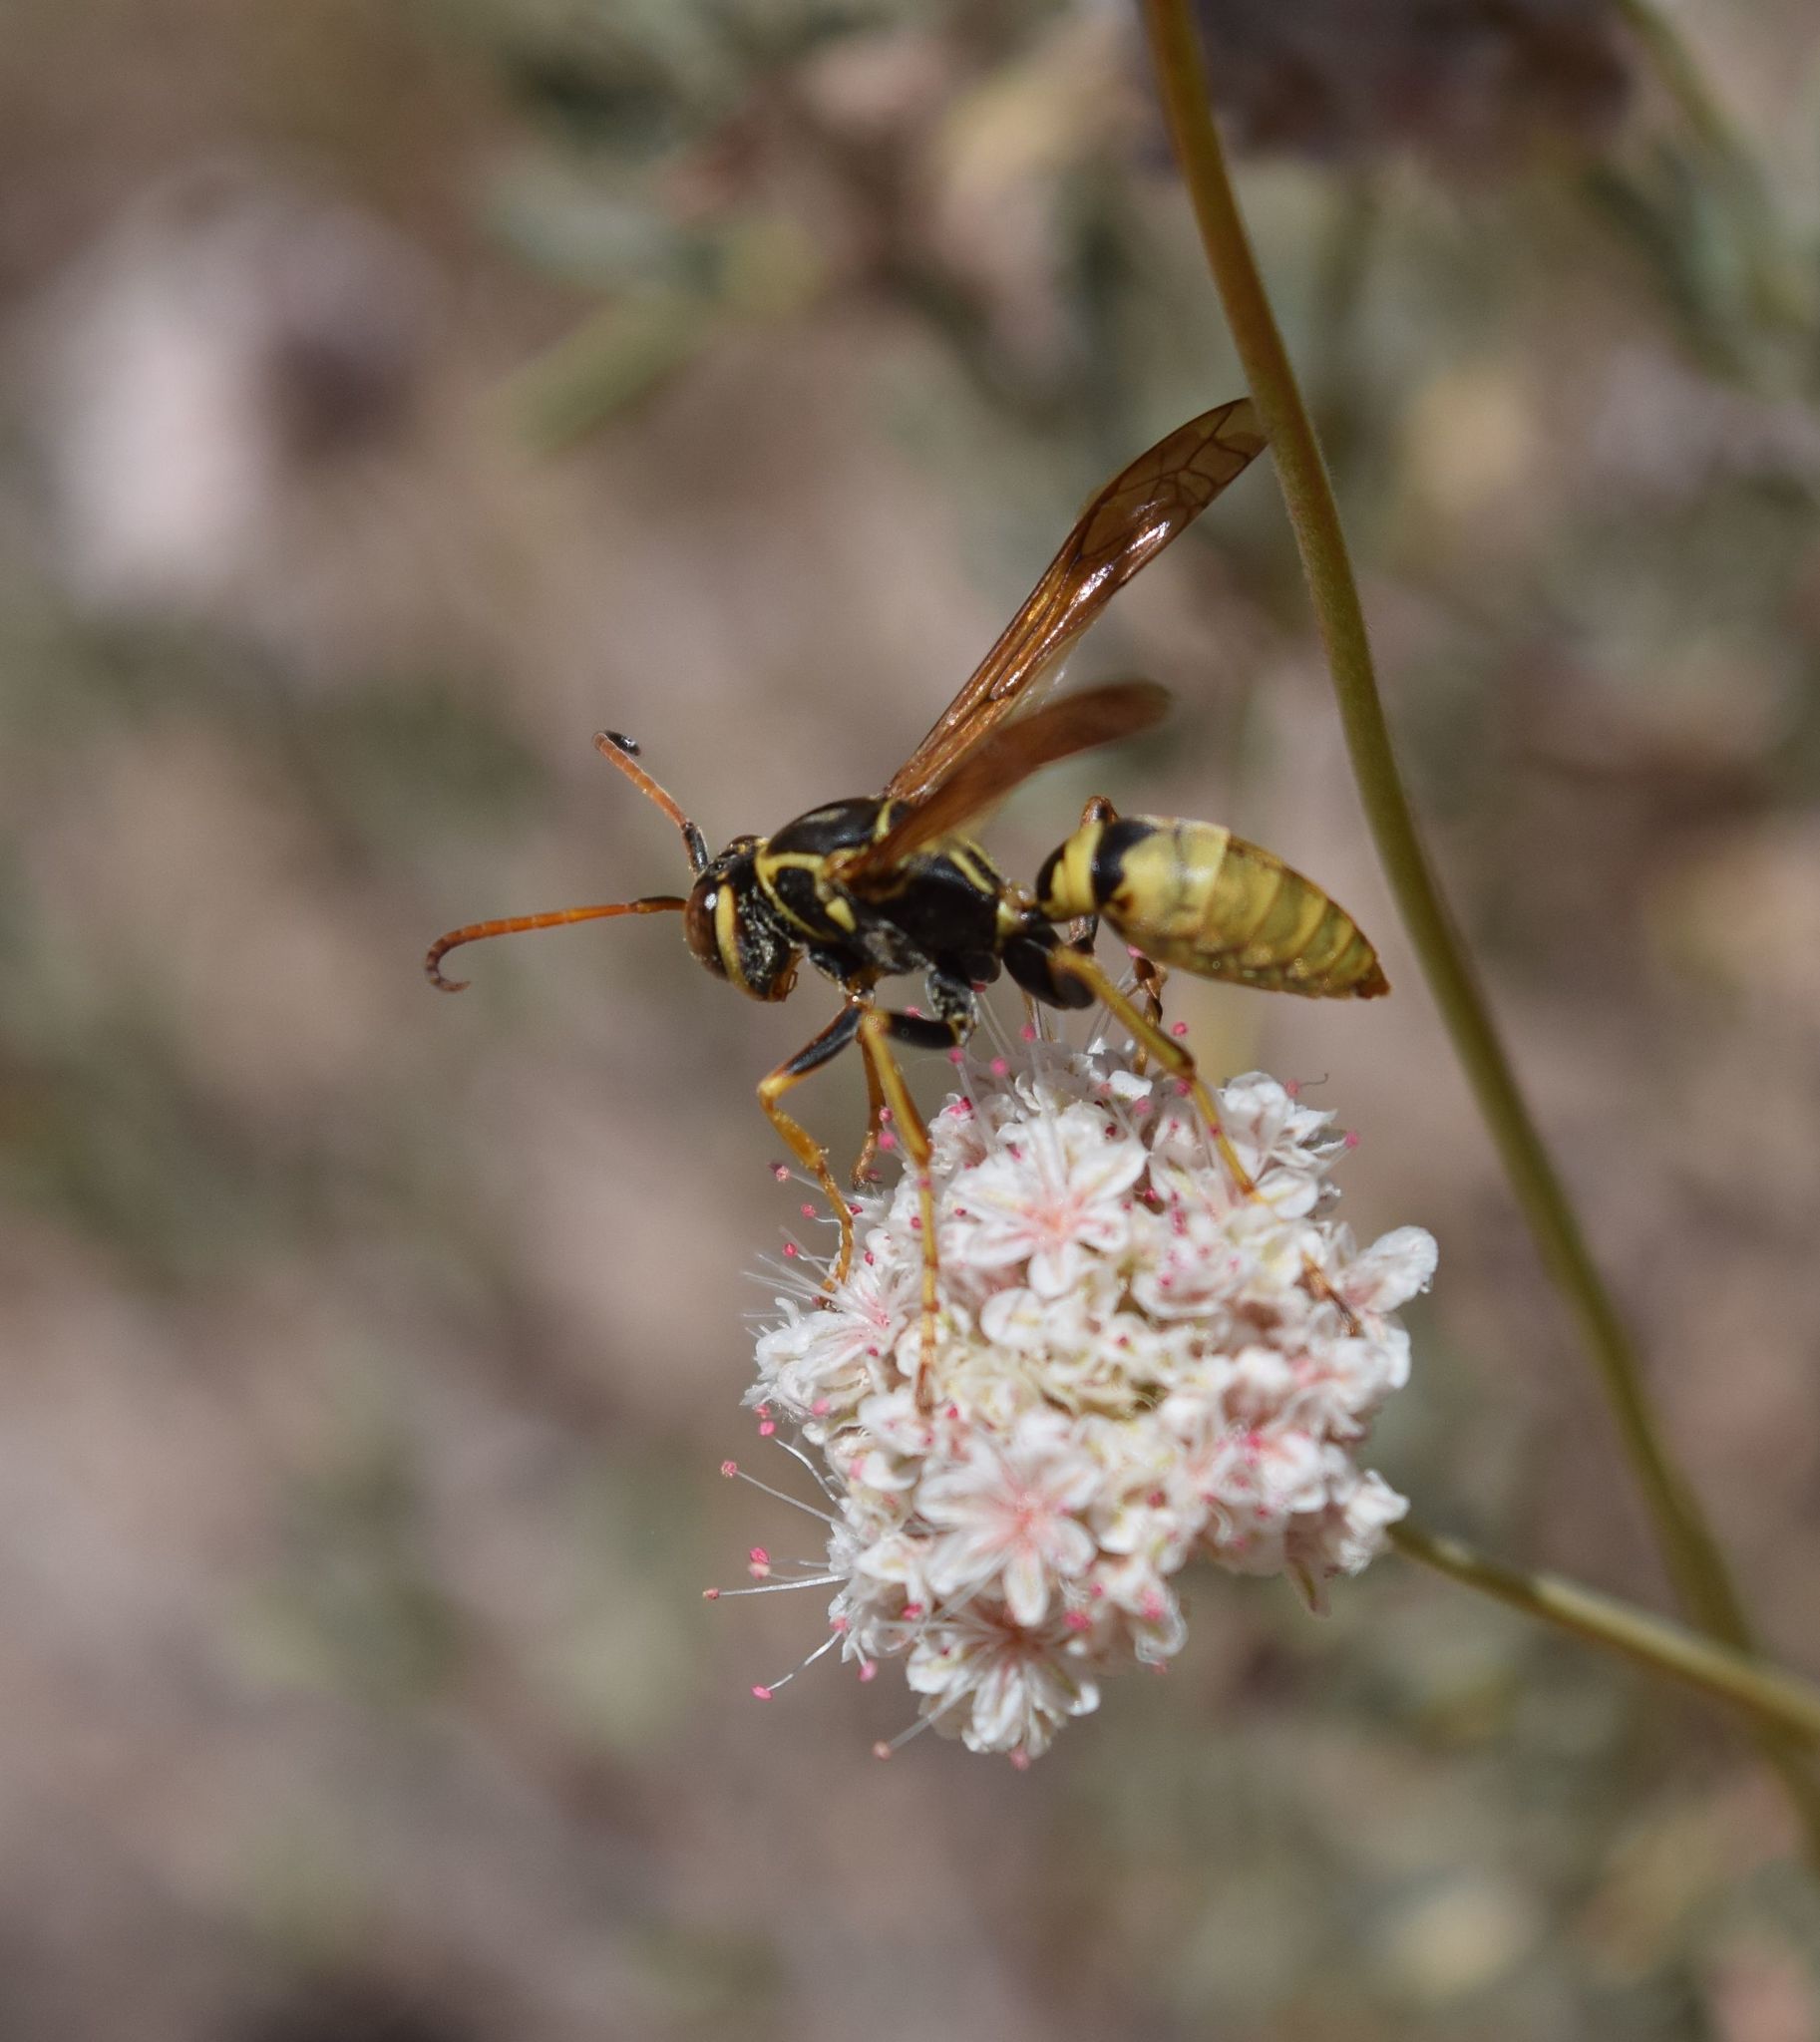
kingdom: Animalia
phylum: Arthropoda
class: Insecta
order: Hymenoptera
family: Eumenidae
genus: Polistes
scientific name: Polistes aurifer
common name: Paper wasp
